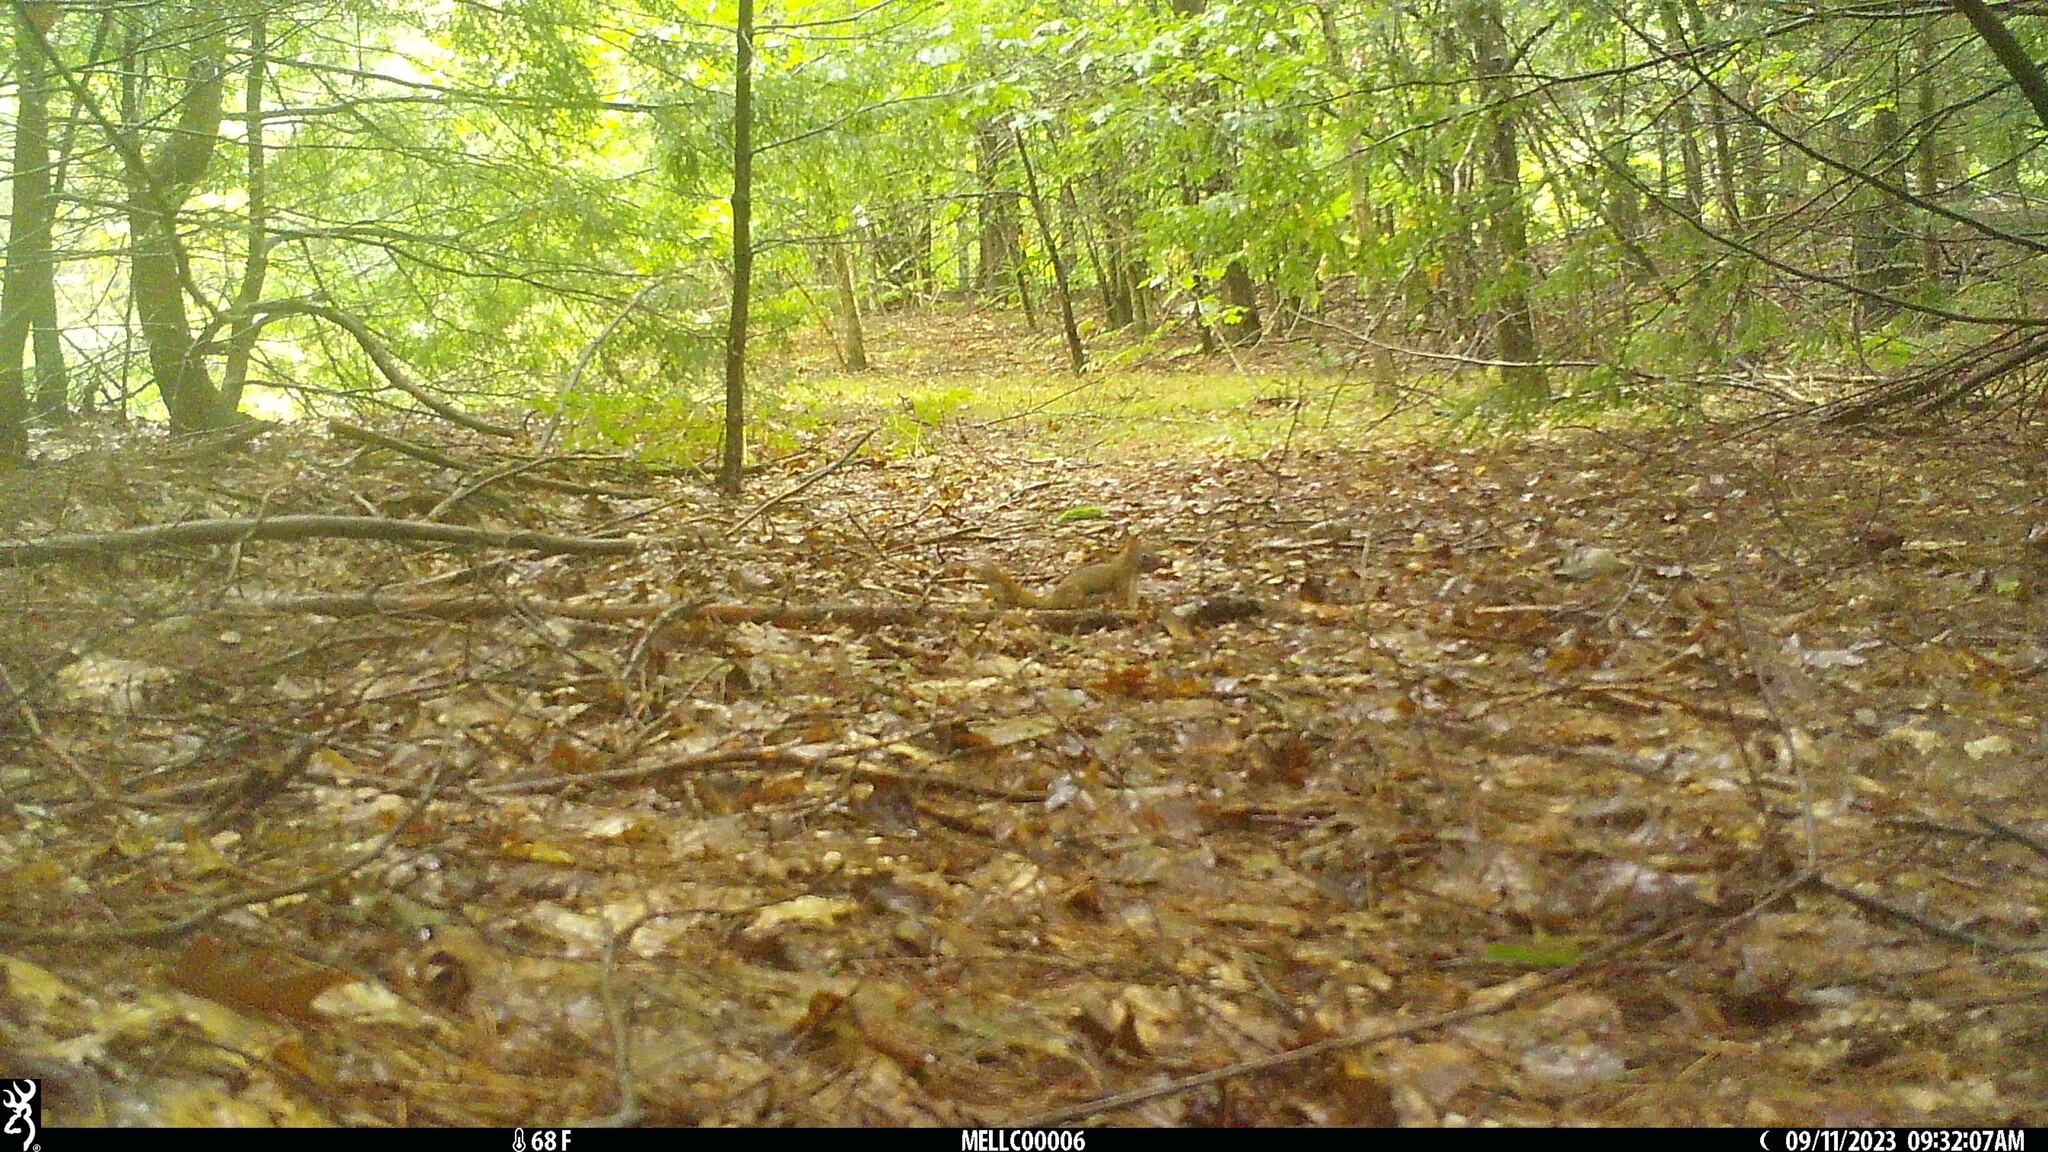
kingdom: Animalia
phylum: Chordata
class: Mammalia
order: Rodentia
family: Sciuridae
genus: Tamiasciurus
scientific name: Tamiasciurus hudsonicus
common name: Red squirrel
